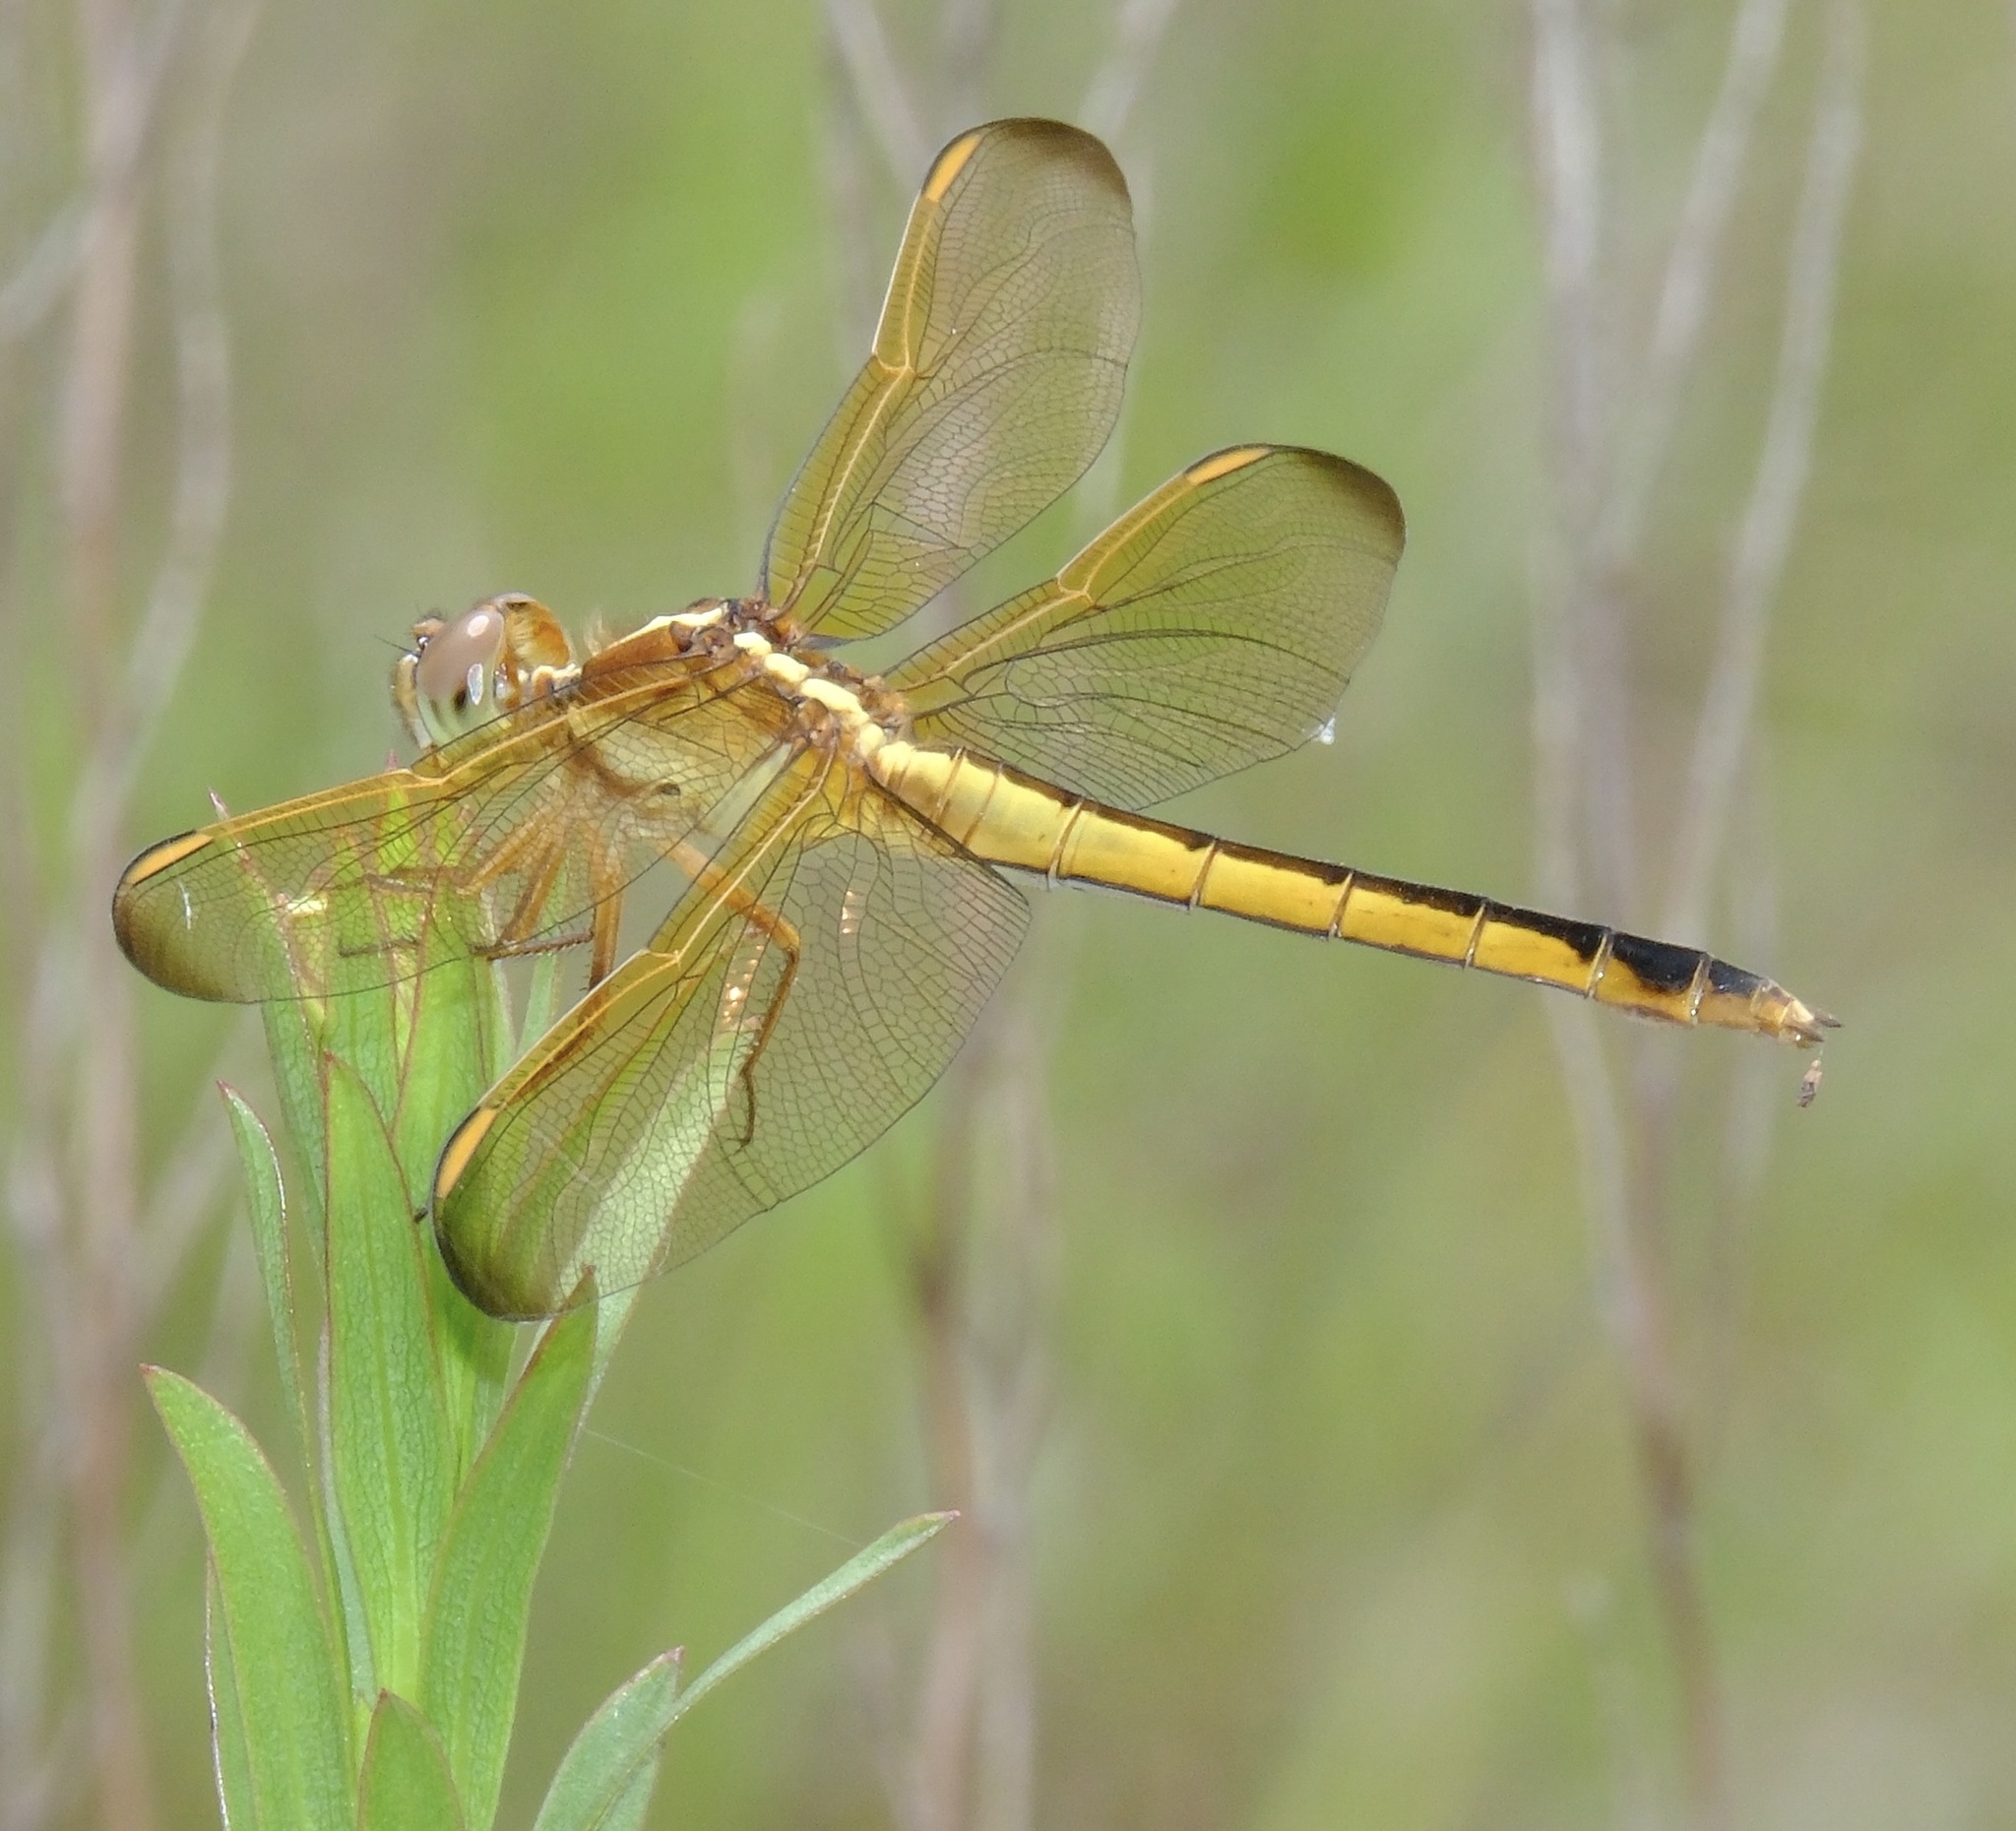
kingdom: Animalia
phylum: Arthropoda
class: Insecta
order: Odonata
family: Libellulidae
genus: Libellula
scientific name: Libellula needhami
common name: Needham's skimmer
